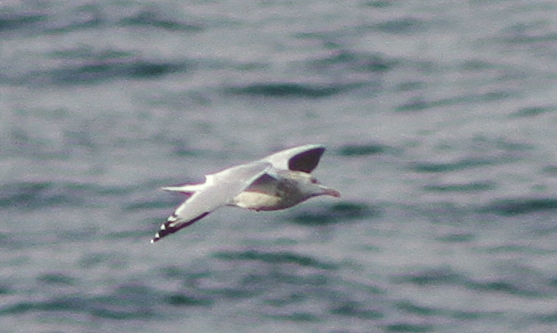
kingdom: Animalia
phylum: Chordata
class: Aves
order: Charadriiformes
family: Laridae
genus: Larus
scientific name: Larus argentatus
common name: Herring gull
